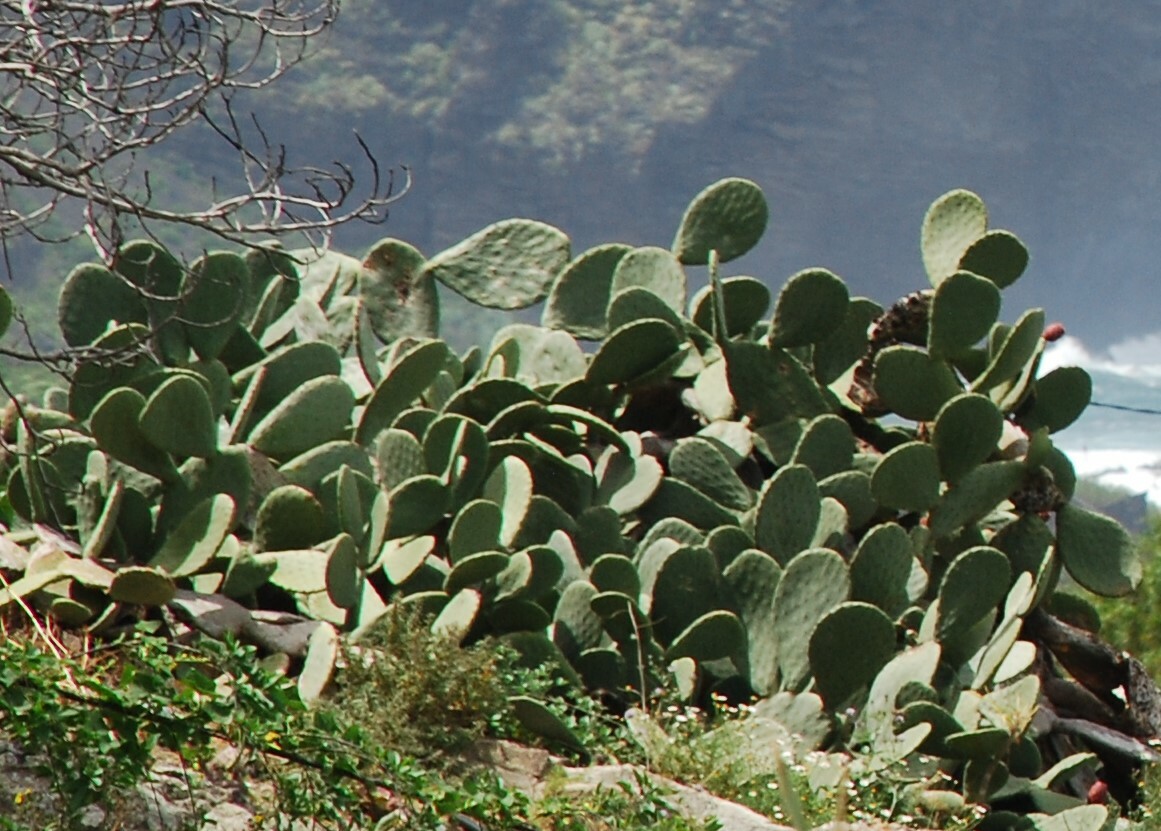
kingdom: Plantae
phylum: Tracheophyta
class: Magnoliopsida
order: Caryophyllales
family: Cactaceae
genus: Opuntia
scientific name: Opuntia ficus-indica
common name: Barbary fig
